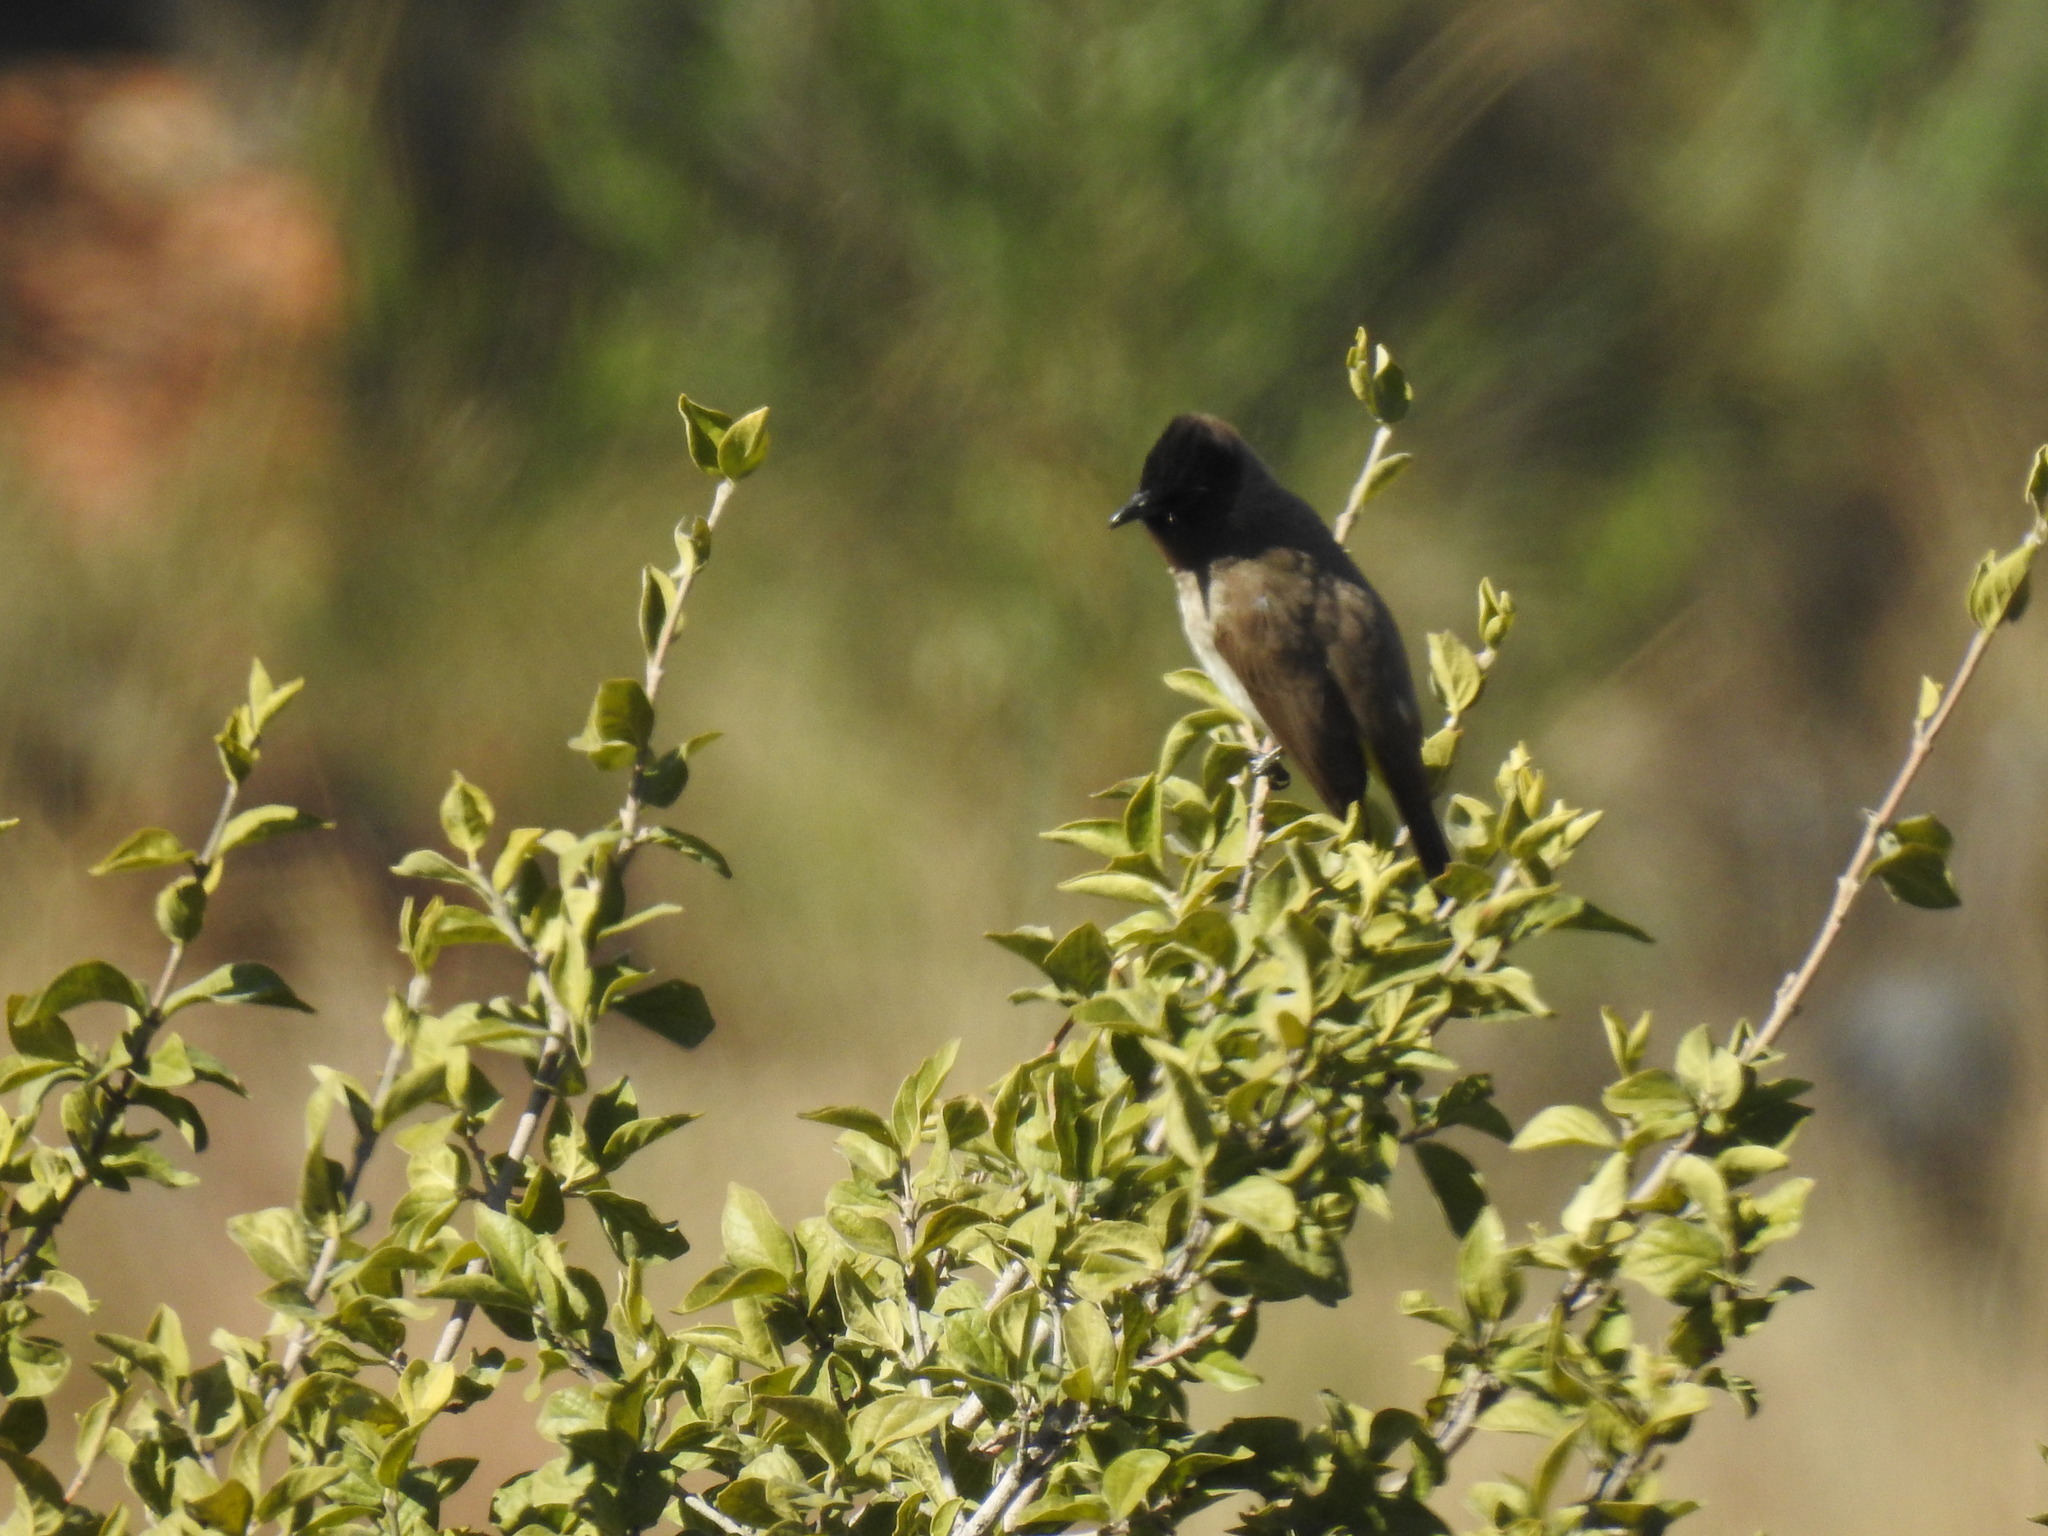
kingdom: Animalia
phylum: Chordata
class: Aves
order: Passeriformes
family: Pycnonotidae
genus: Pycnonotus
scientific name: Pycnonotus barbatus
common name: Common bulbul
